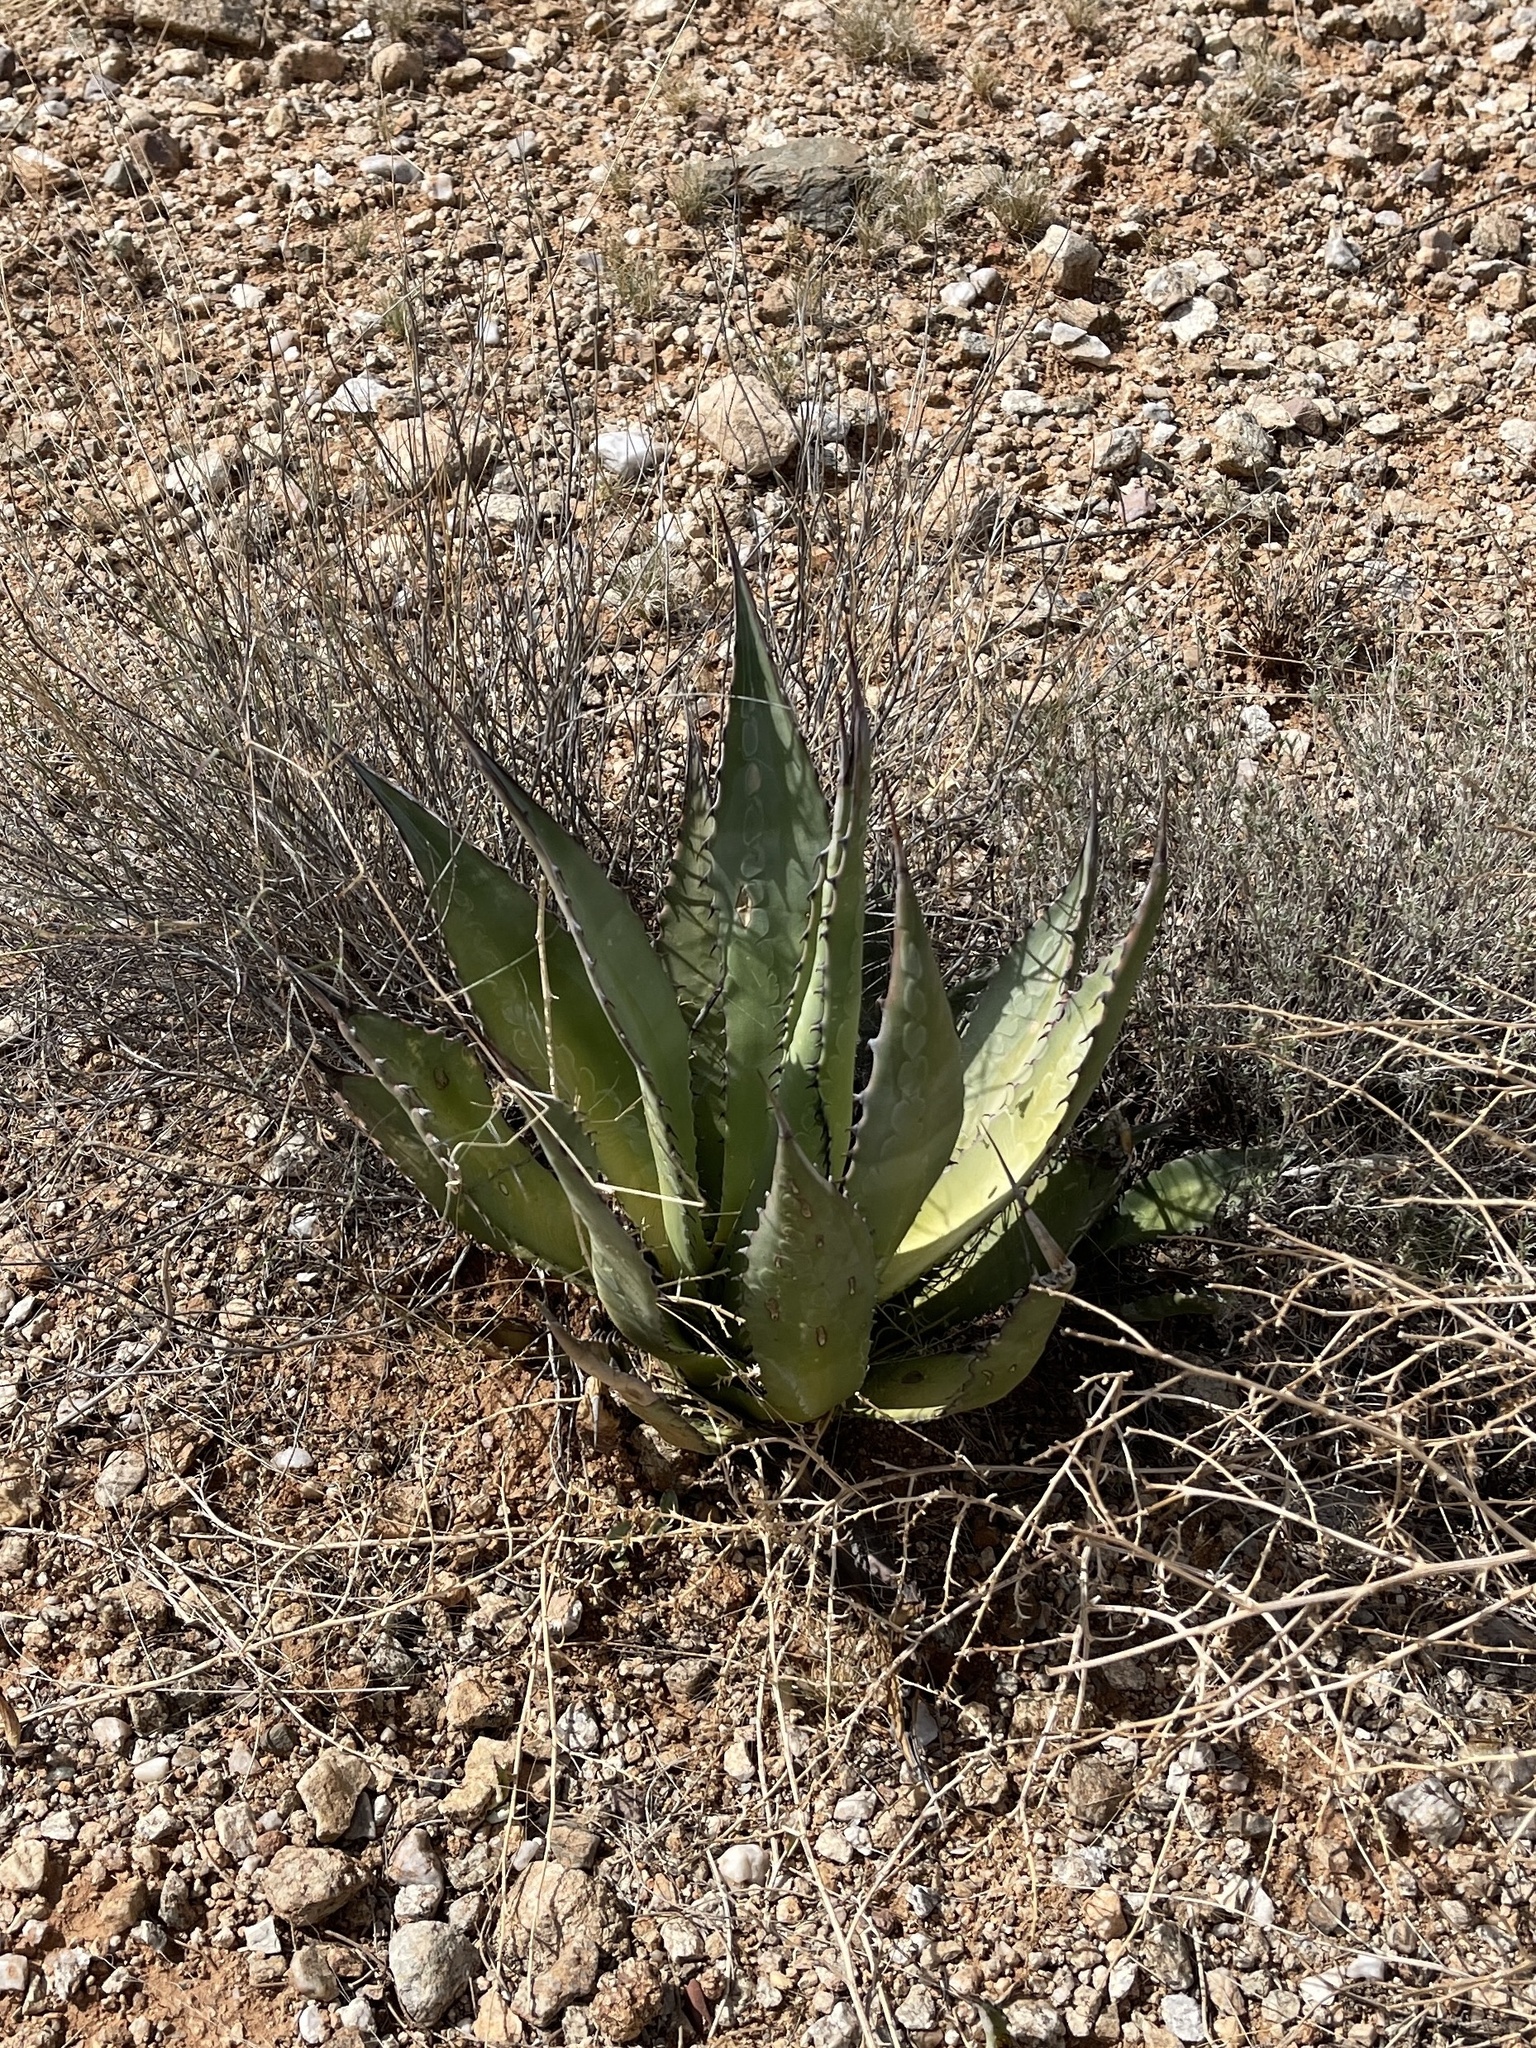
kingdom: Plantae
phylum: Tracheophyta
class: Liliopsida
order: Asparagales
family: Asparagaceae
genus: Agave
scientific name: Agave palmeri
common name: Palmer agave
